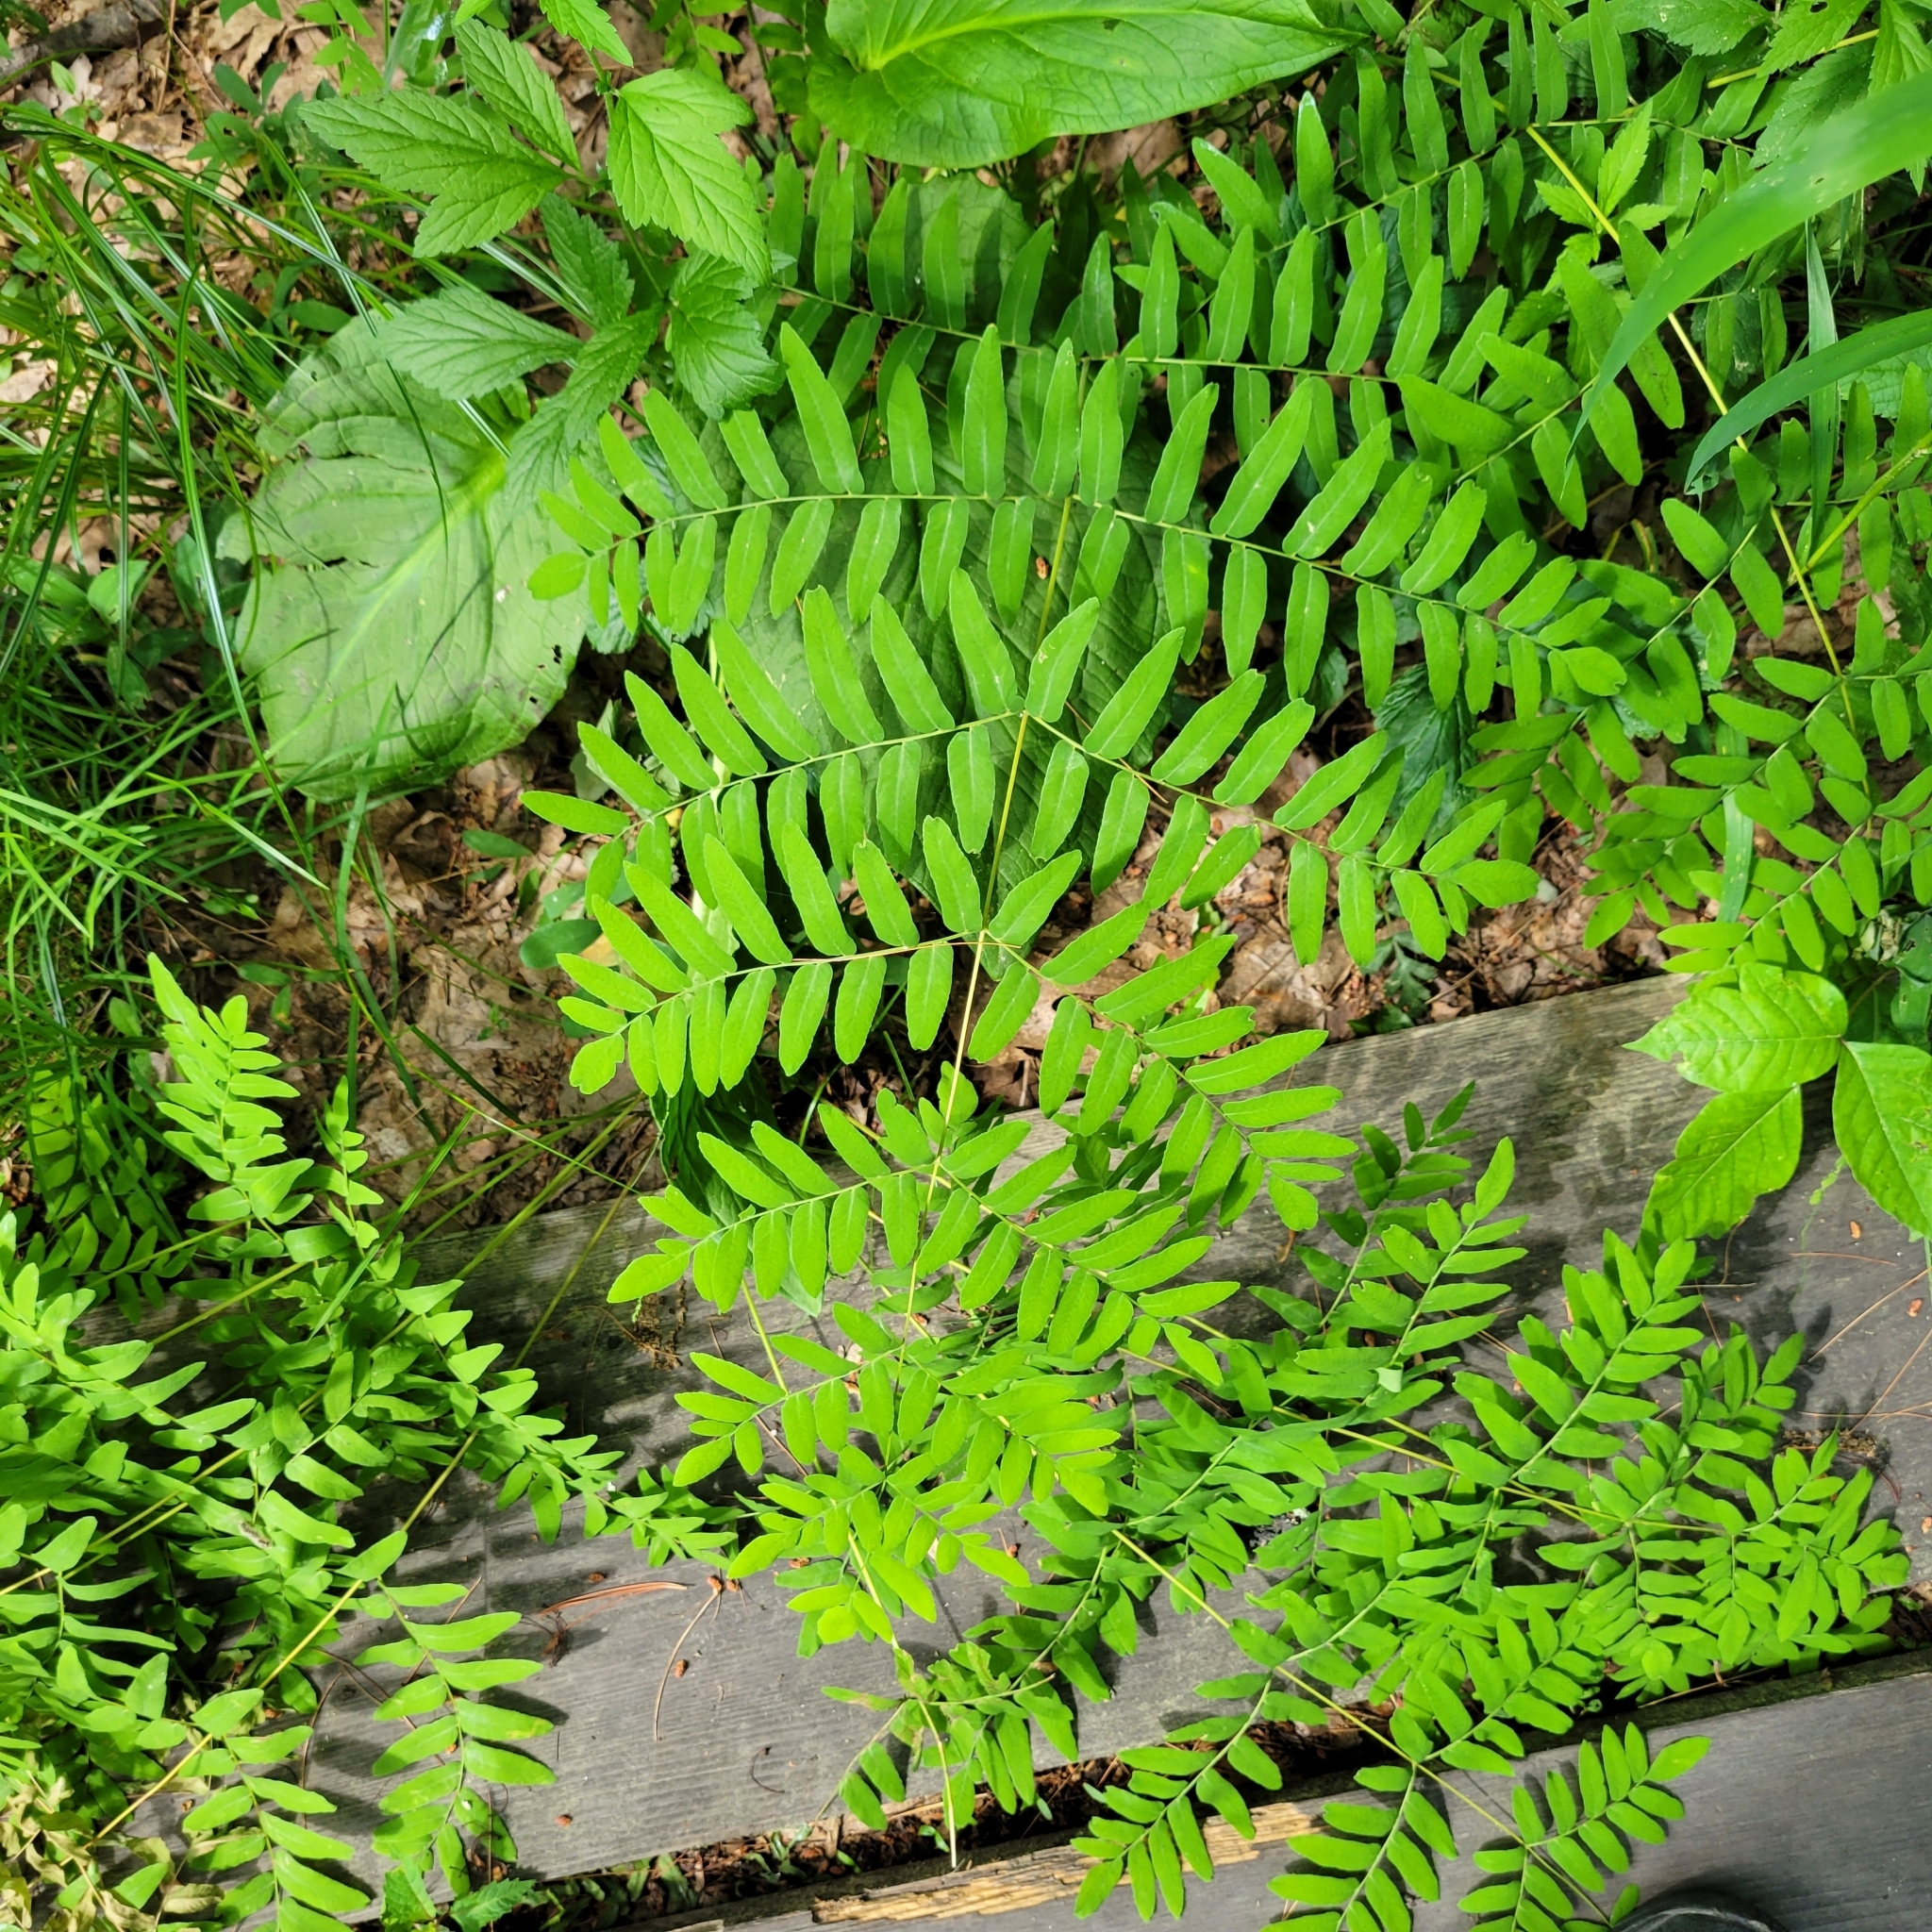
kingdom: Plantae
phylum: Tracheophyta
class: Polypodiopsida
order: Osmundales
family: Osmundaceae
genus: Osmunda
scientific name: Osmunda spectabilis
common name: American royal fern
